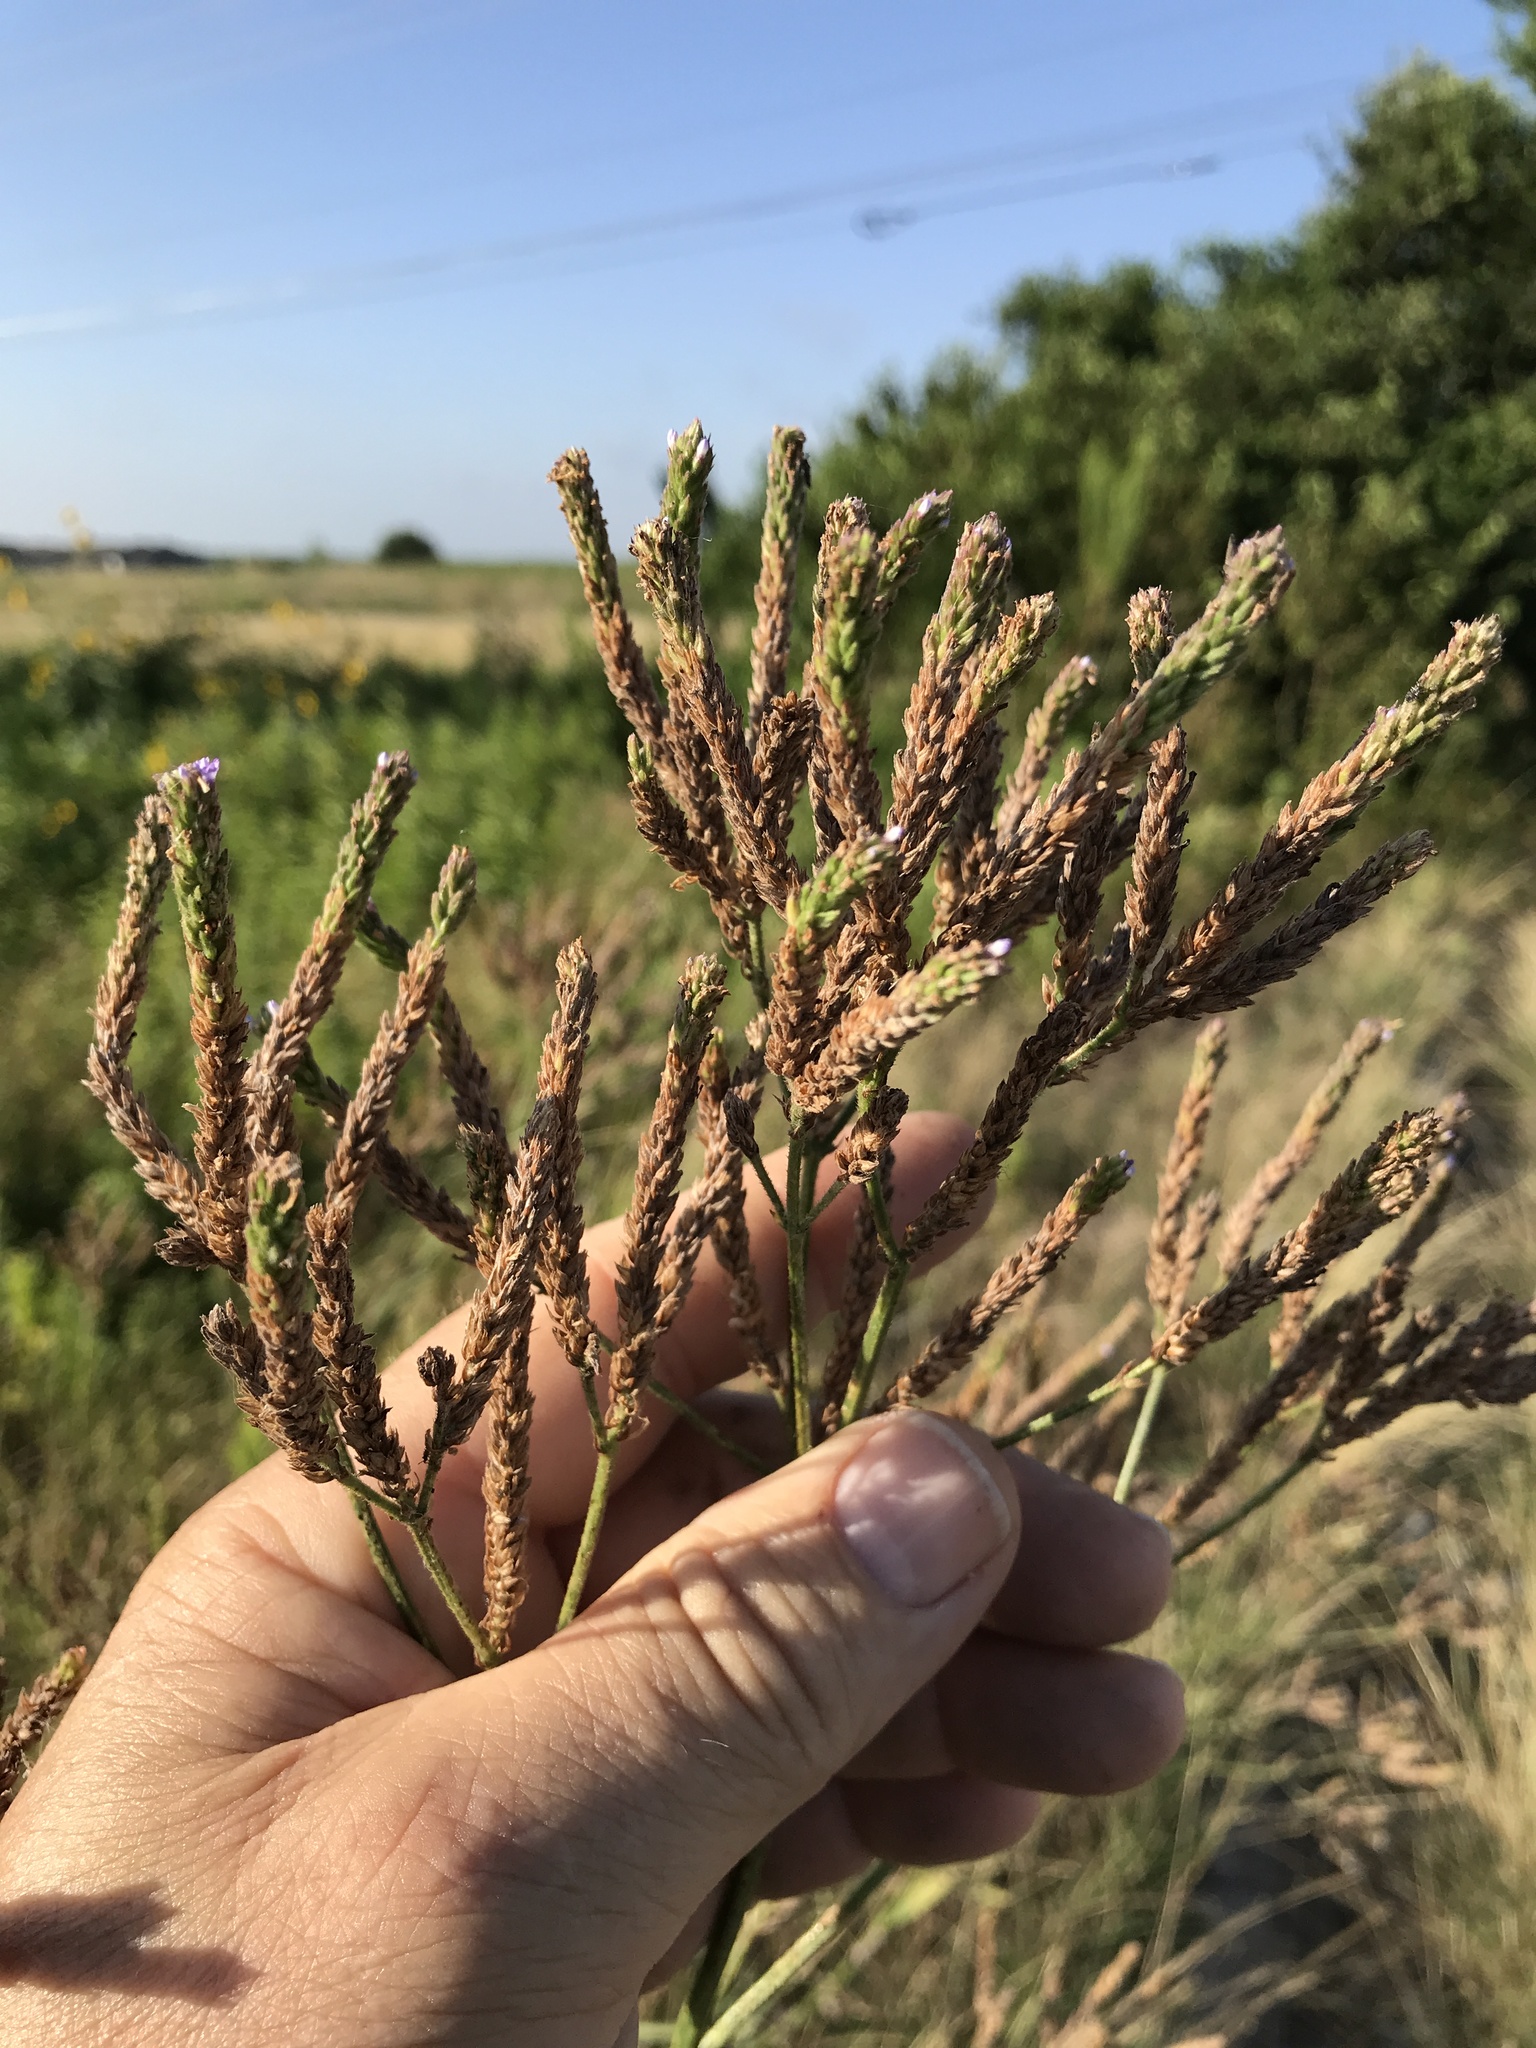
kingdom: Plantae
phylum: Tracheophyta
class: Magnoliopsida
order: Lamiales
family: Verbenaceae
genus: Verbena
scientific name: Verbena brasiliensis
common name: Brazilian vervain
